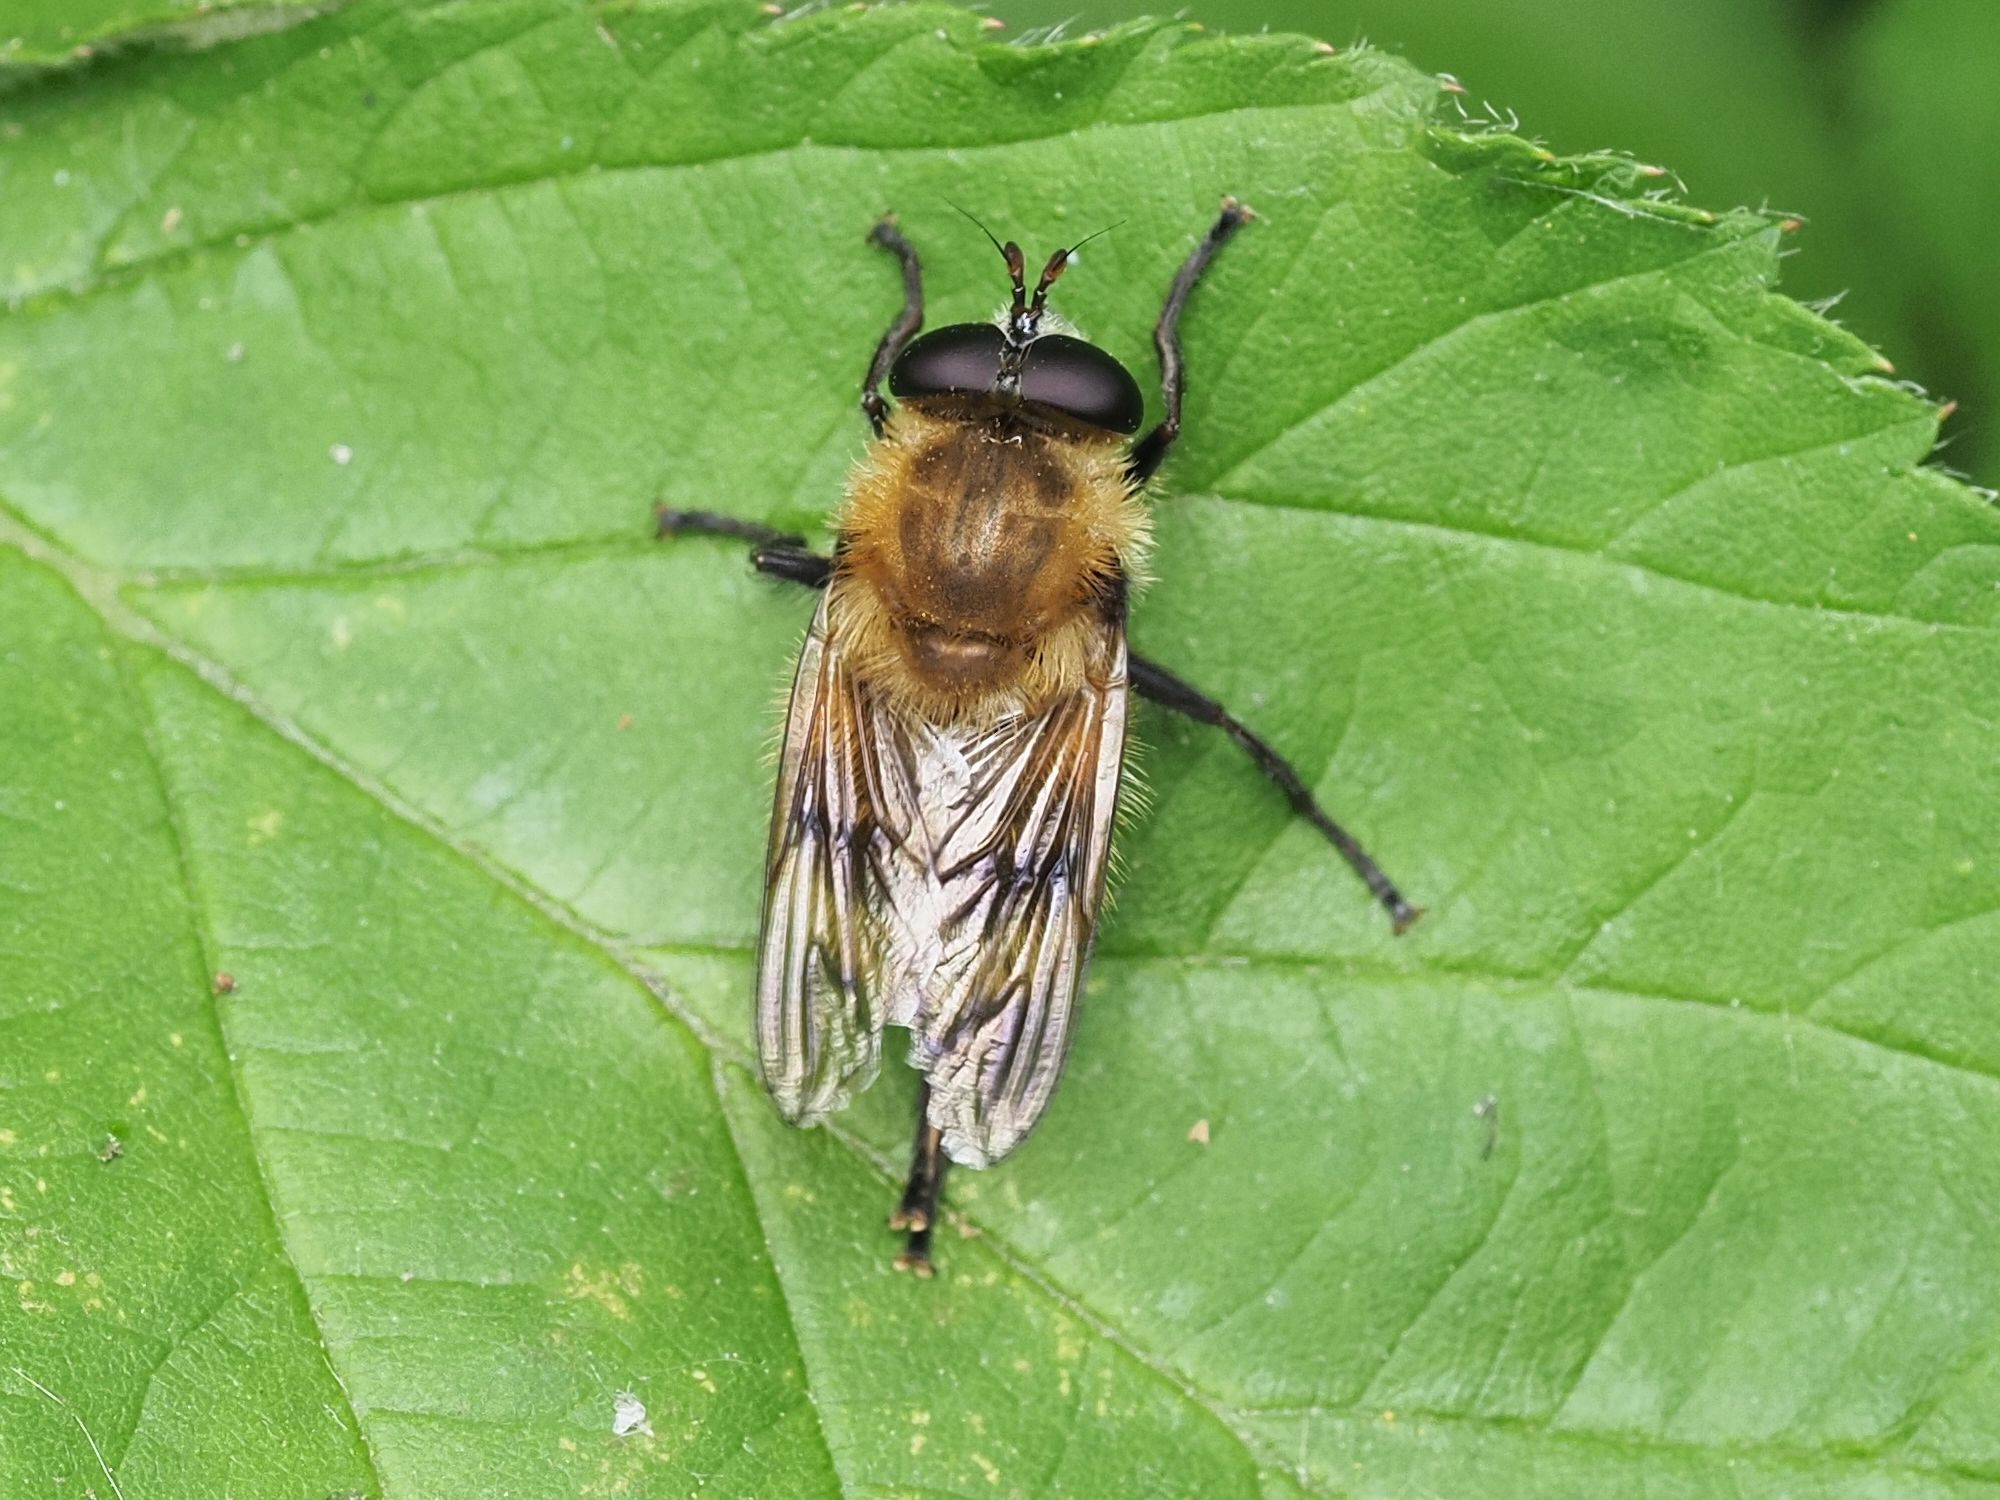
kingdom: Animalia
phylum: Arthropoda
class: Insecta
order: Diptera
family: Syrphidae
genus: Criorhina
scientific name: Criorhina berberina
